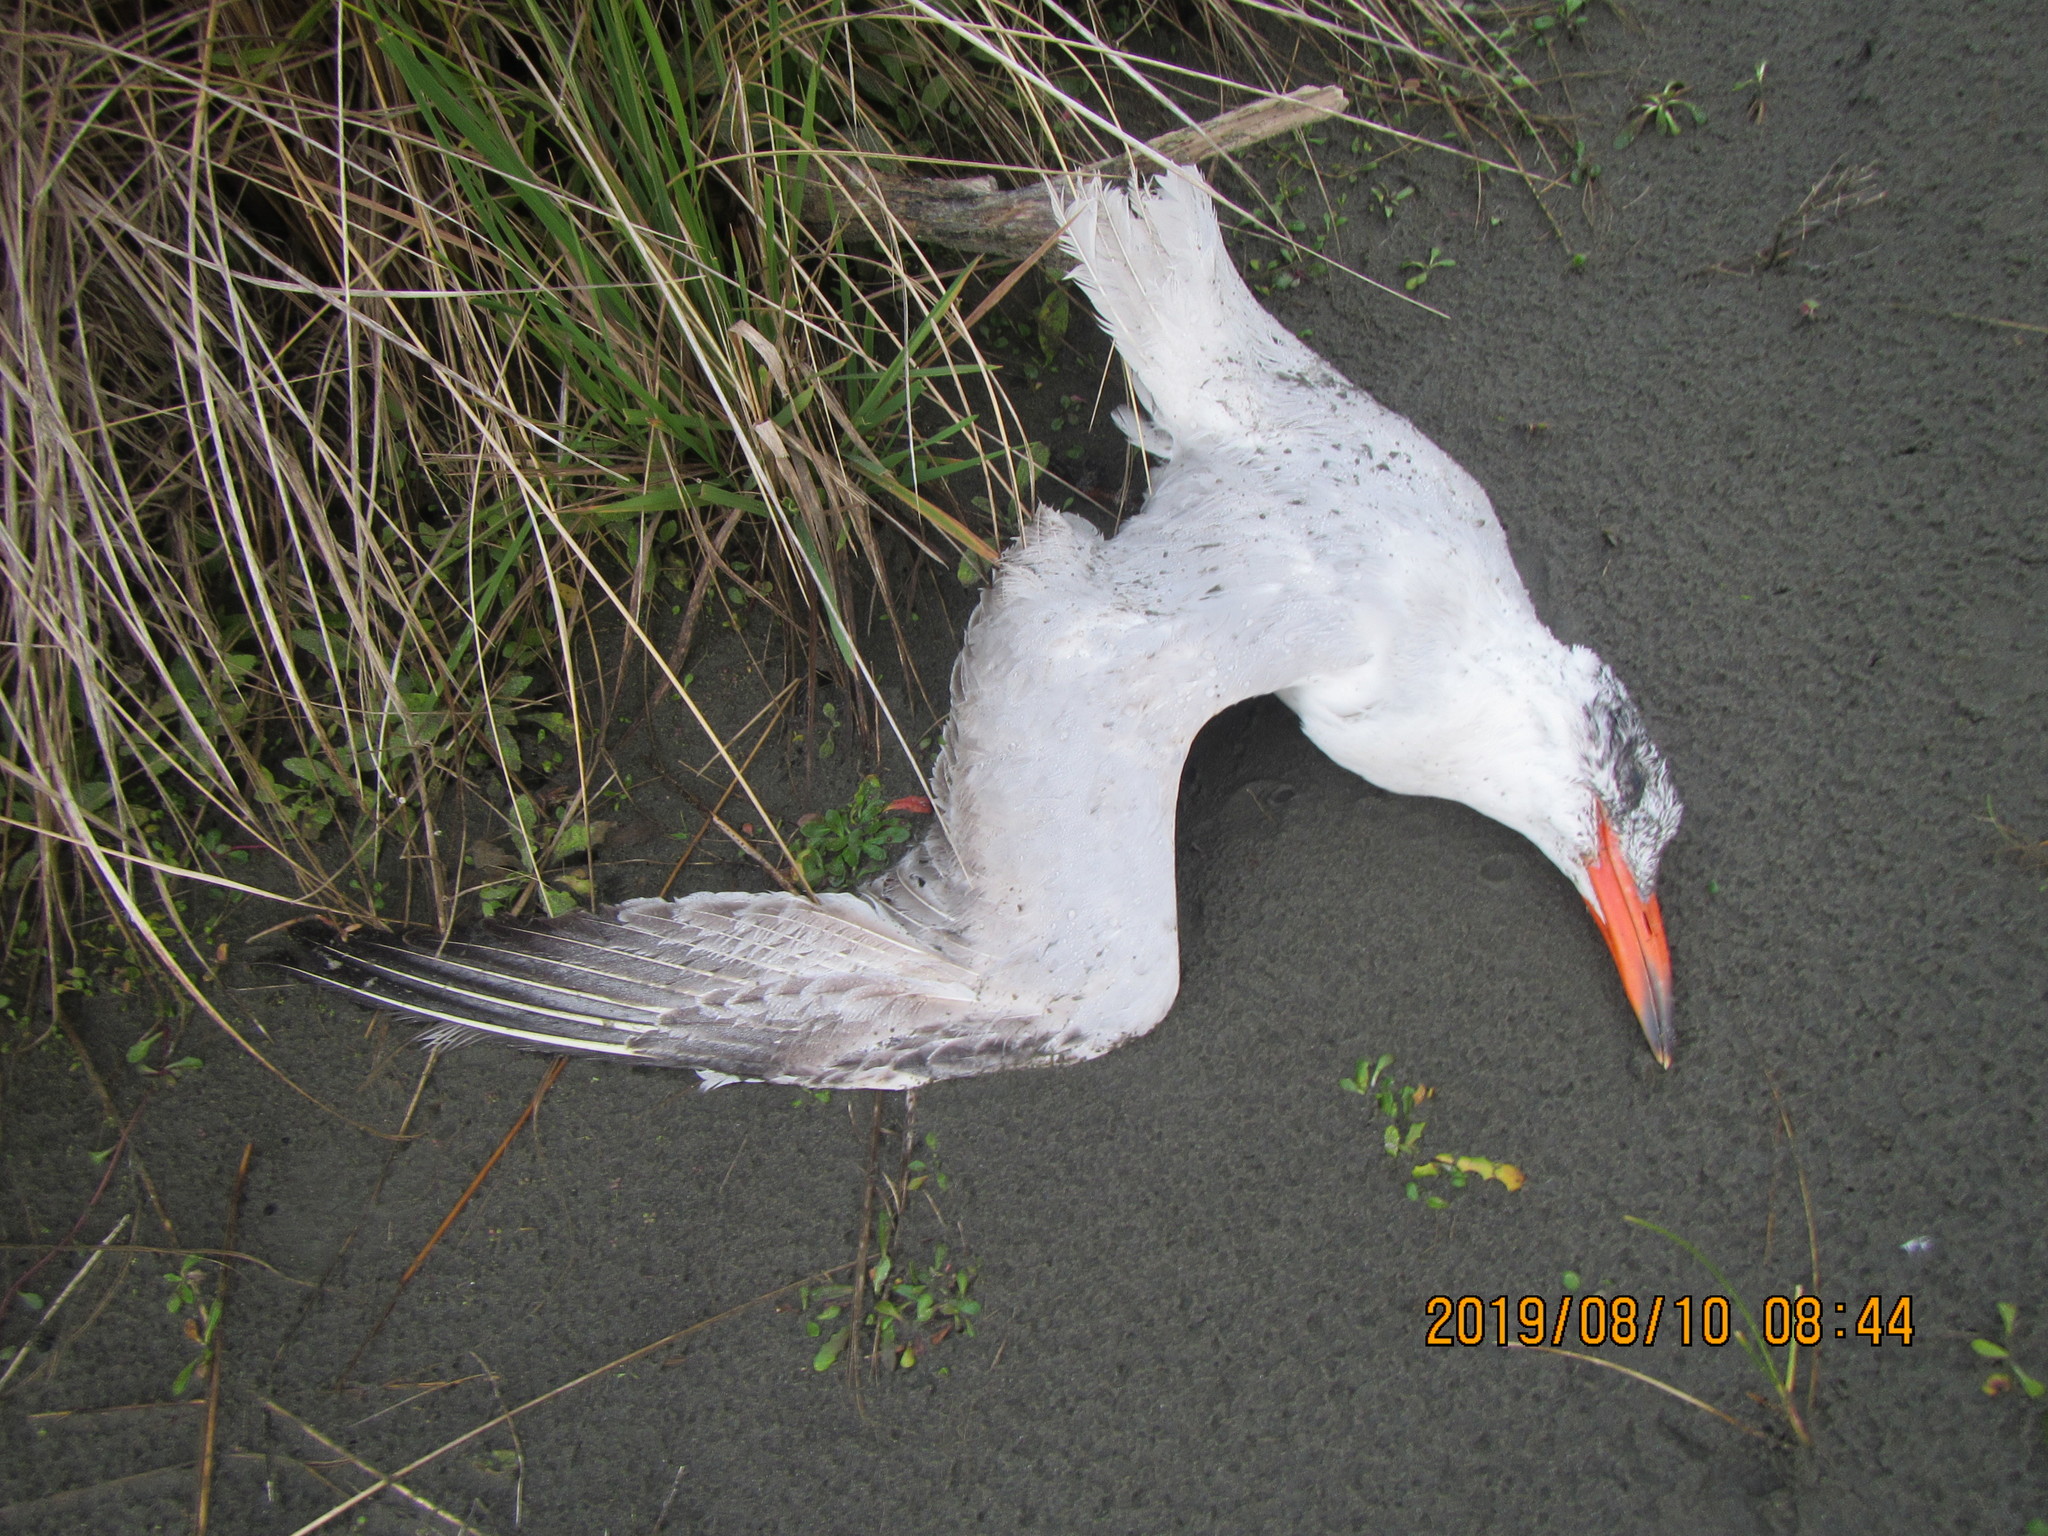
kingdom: Animalia
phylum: Chordata
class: Aves
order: Charadriiformes
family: Laridae
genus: Hydroprogne
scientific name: Hydroprogne caspia
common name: Caspian tern
